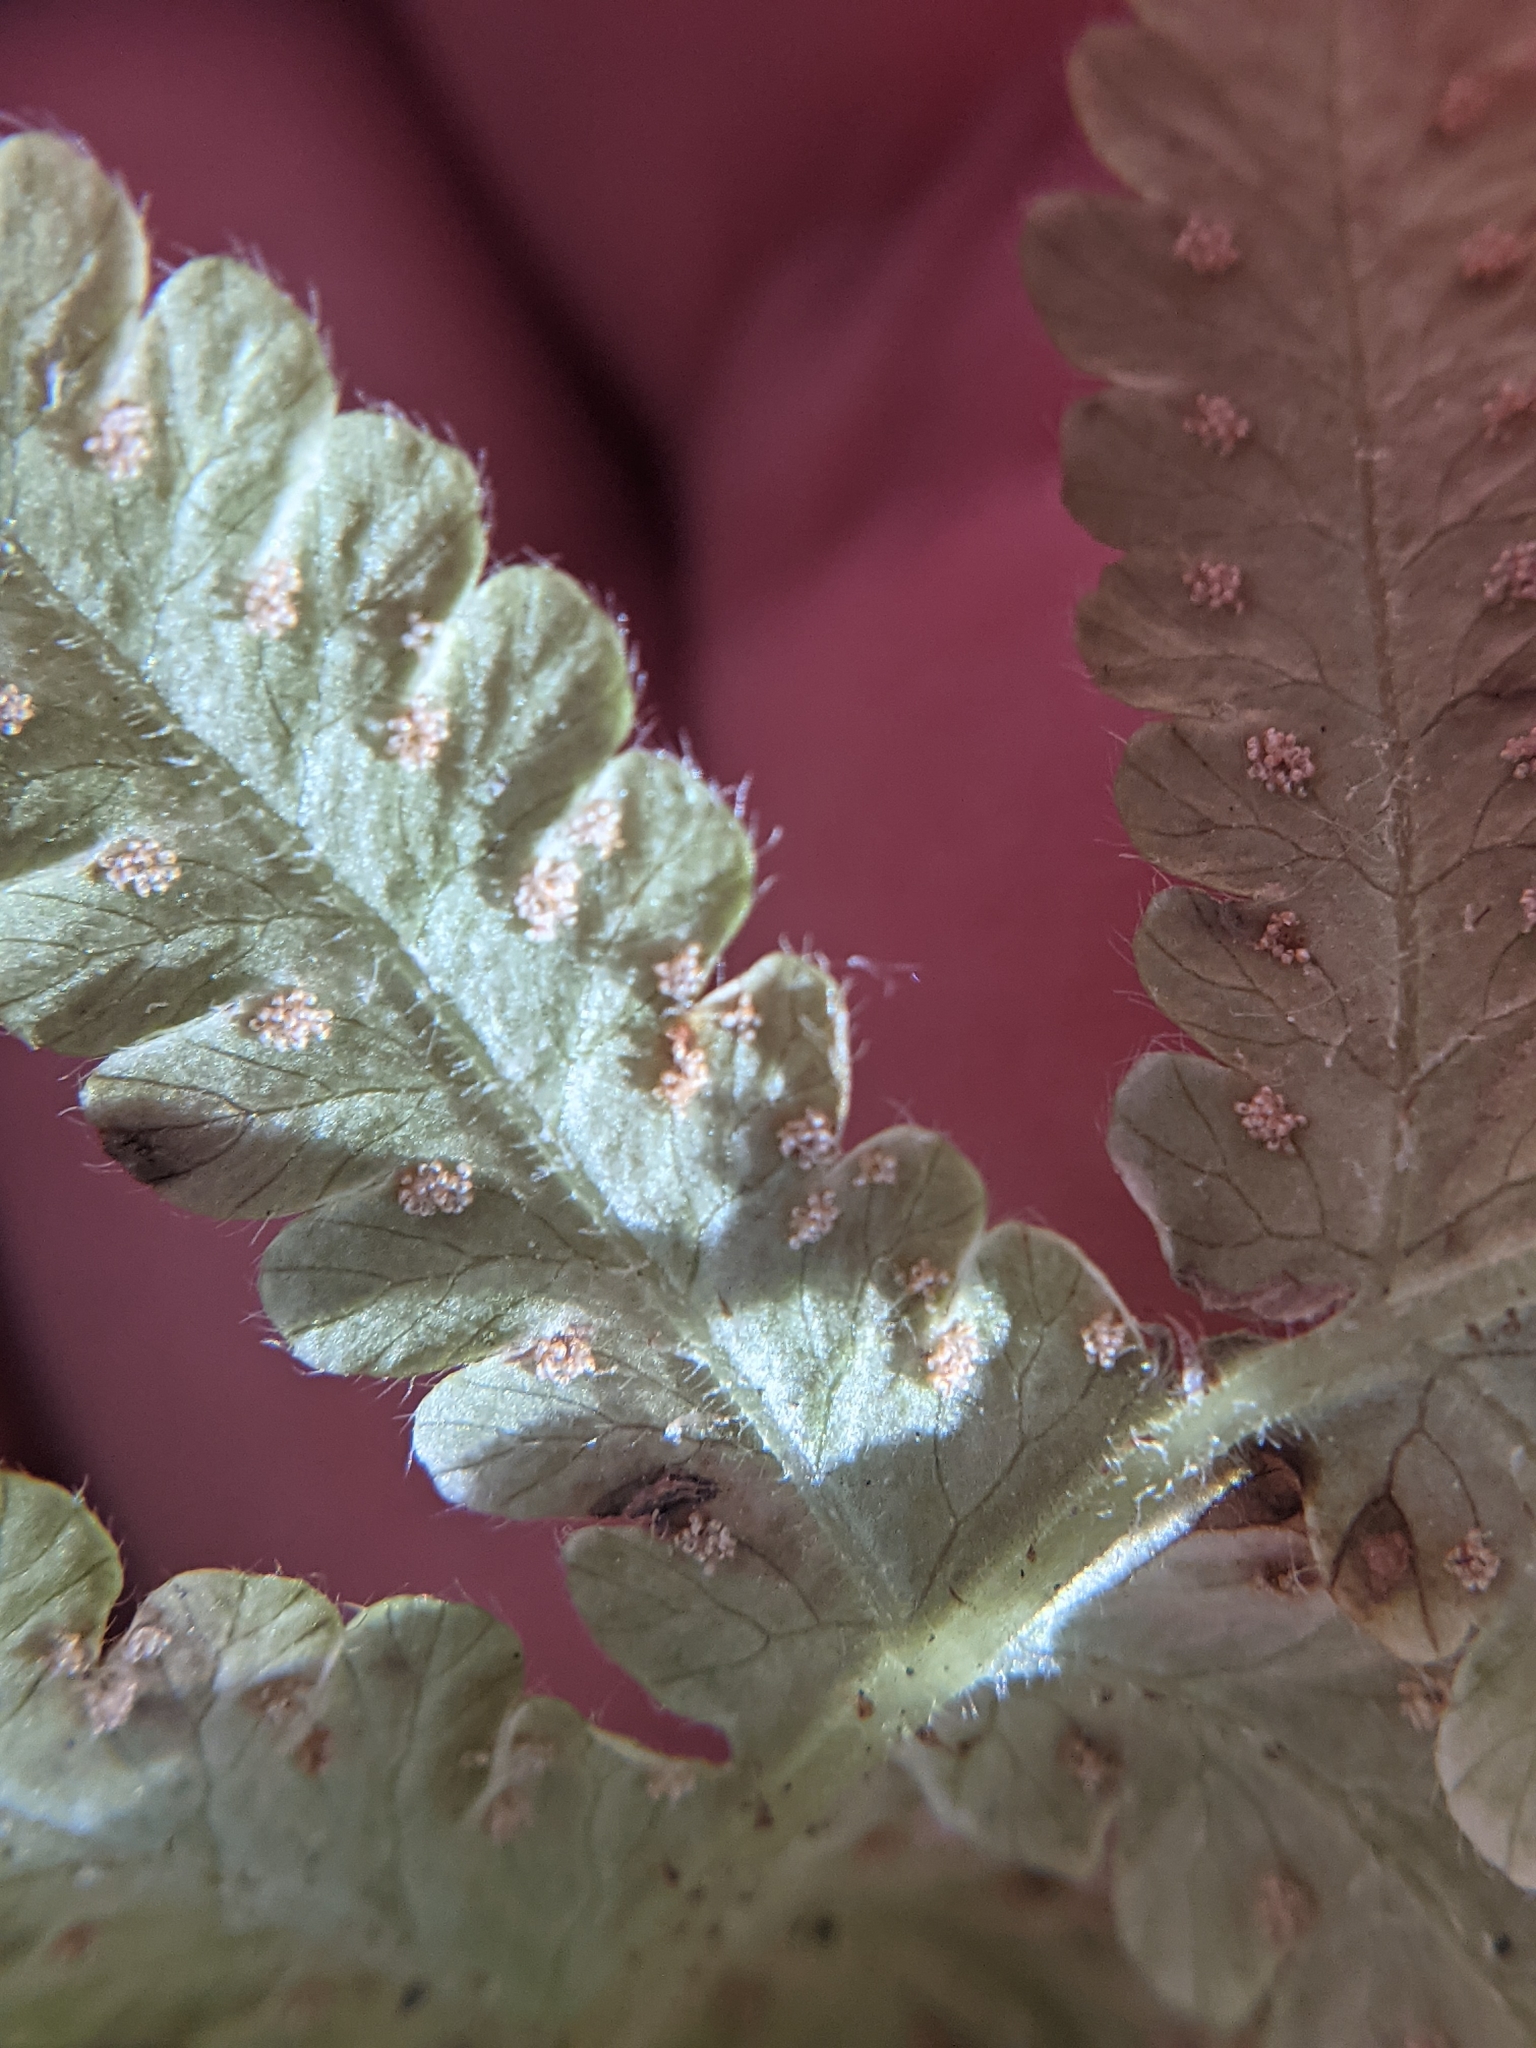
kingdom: Plantae
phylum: Tracheophyta
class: Polypodiopsida
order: Polypodiales
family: Thelypteridaceae
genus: Phegopteris
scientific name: Phegopteris connectilis
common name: Beech fern
